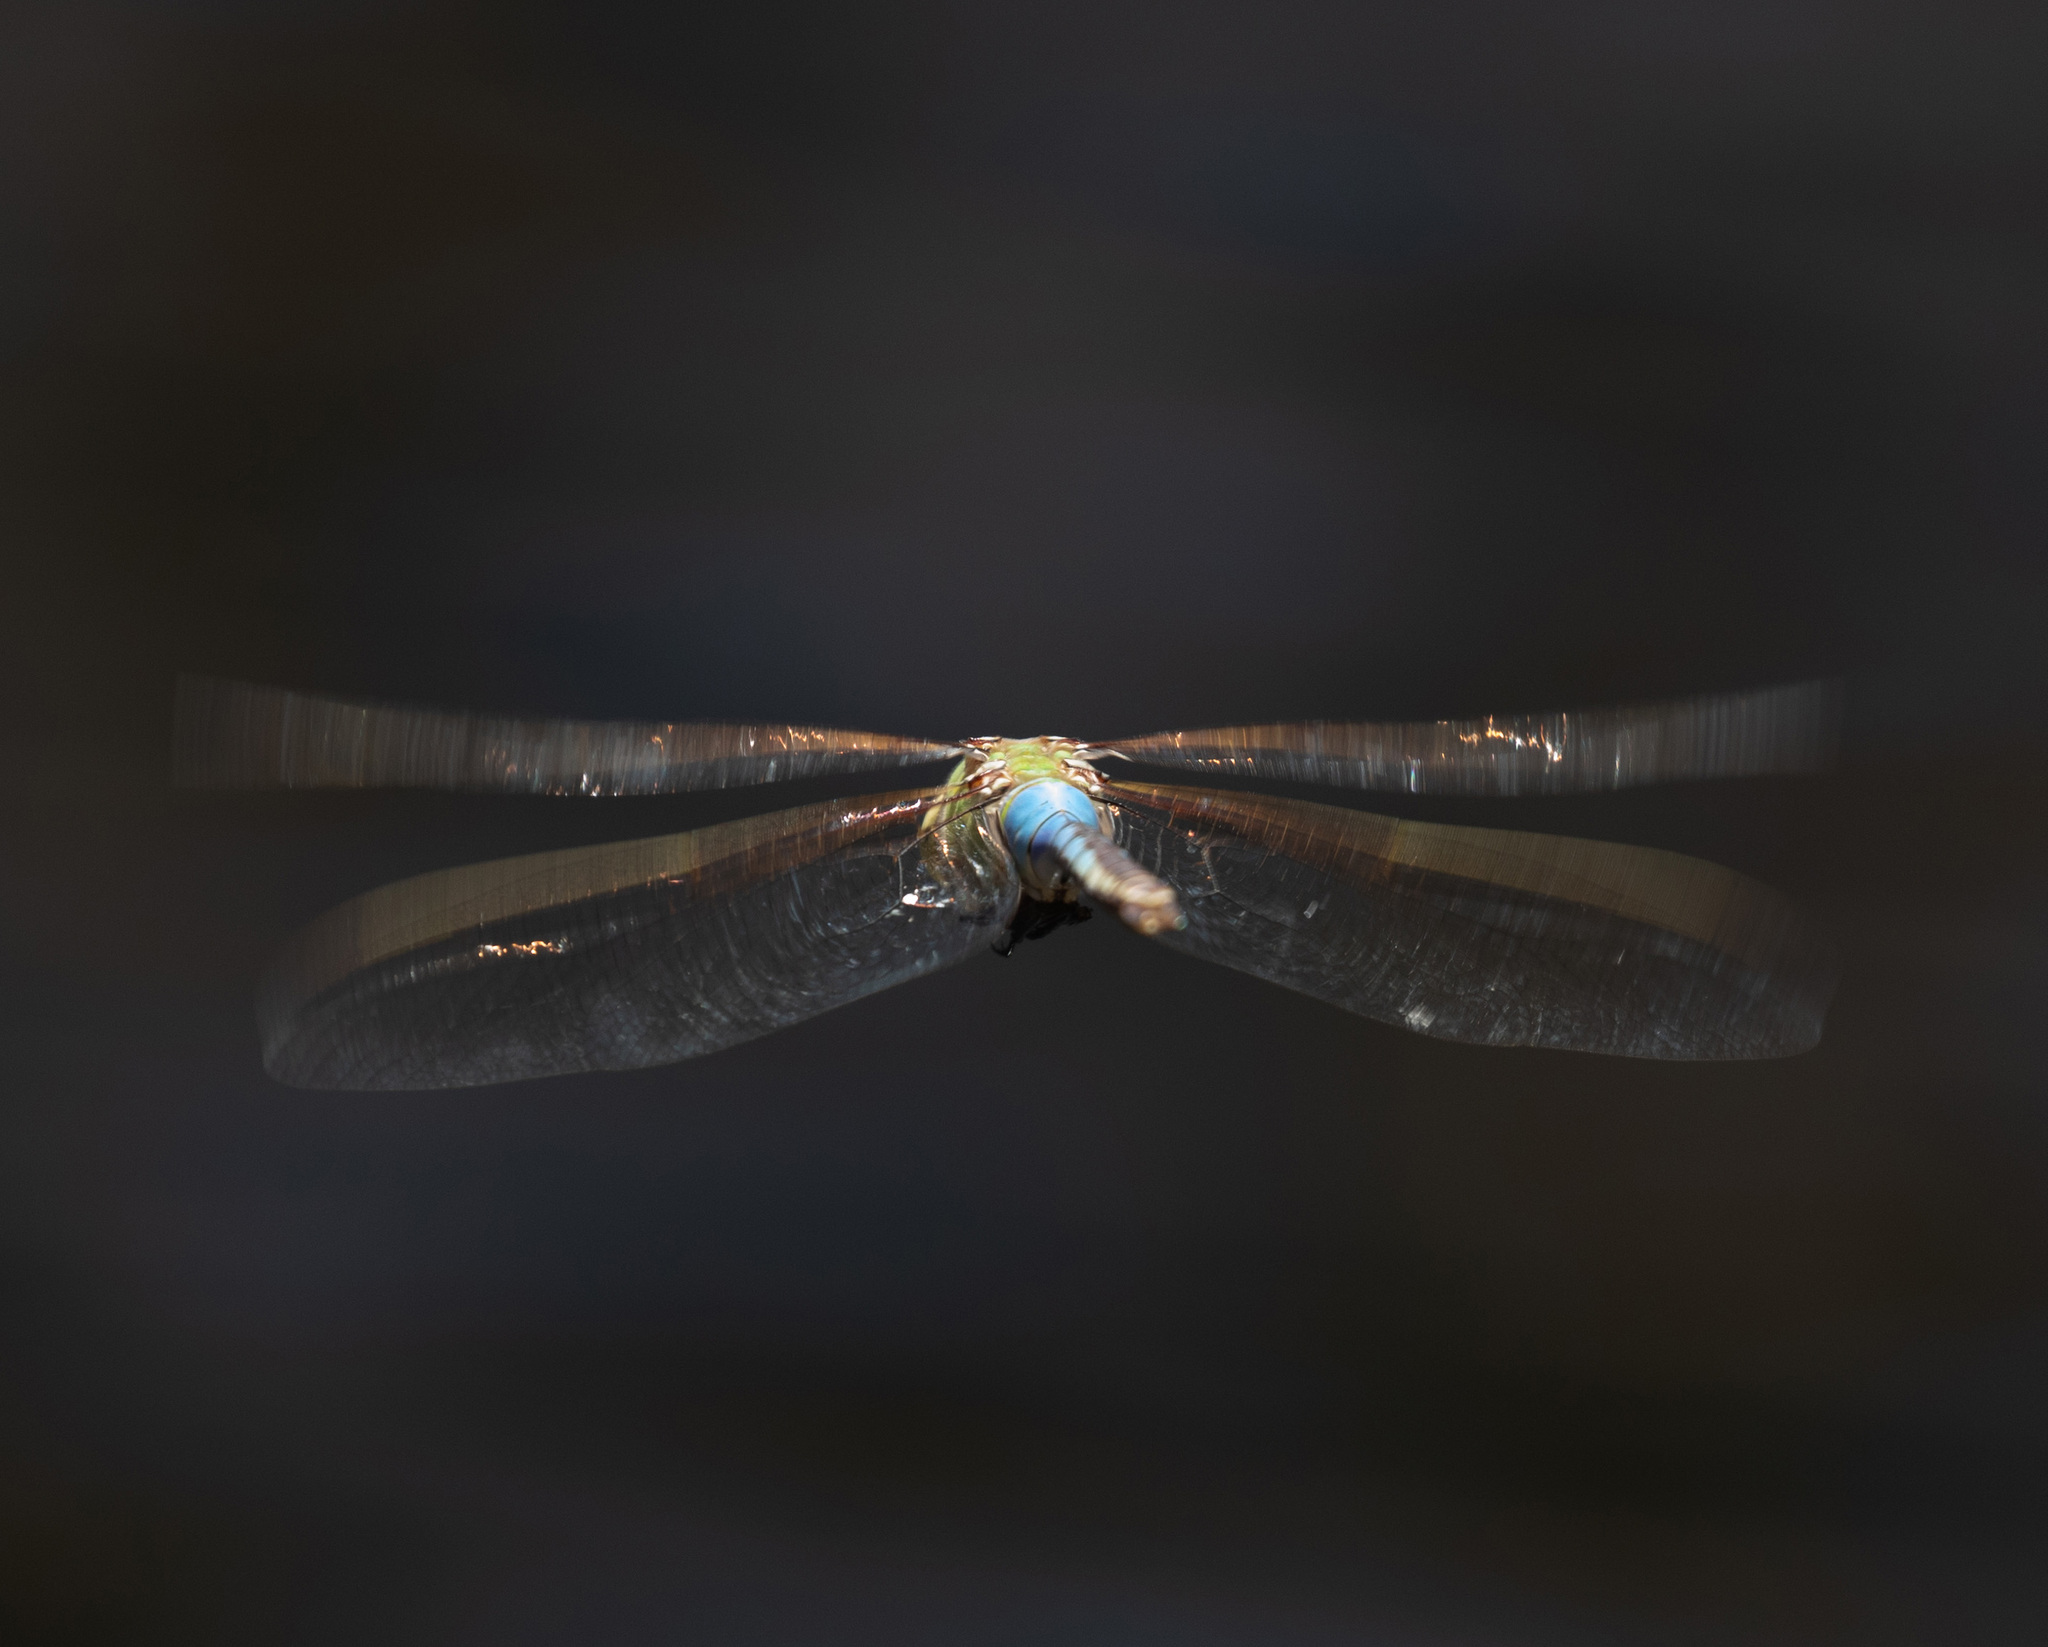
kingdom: Animalia
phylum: Arthropoda
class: Insecta
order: Odonata
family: Aeshnidae
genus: Anax
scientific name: Anax junius
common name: Common green darner
